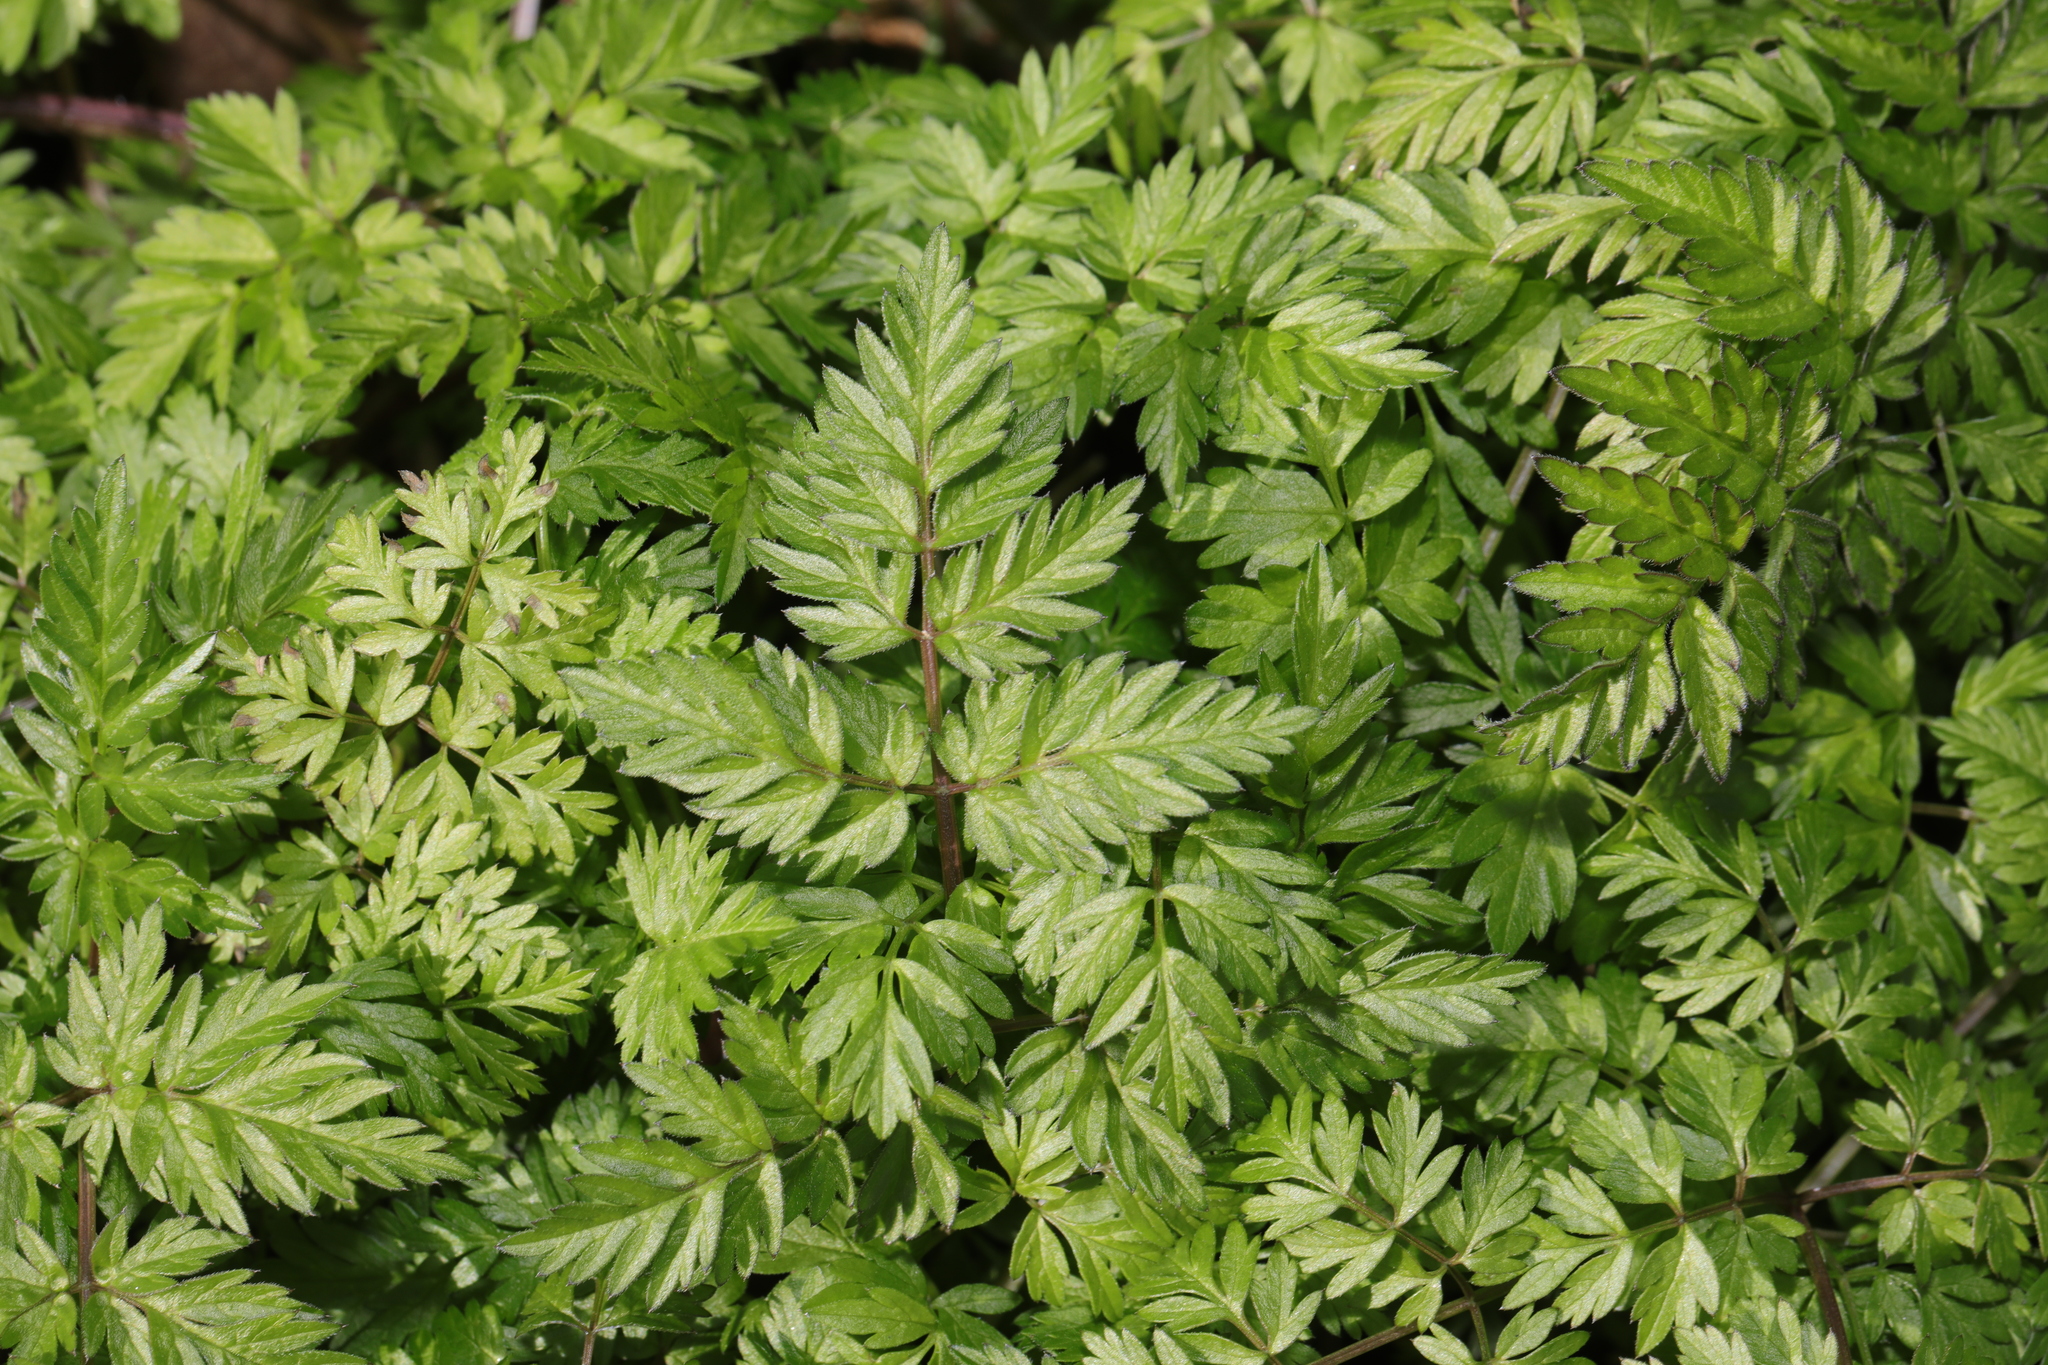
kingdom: Plantae
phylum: Tracheophyta
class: Magnoliopsida
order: Apiales
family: Apiaceae
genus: Anthriscus
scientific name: Anthriscus sylvestris
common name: Cow parsley
